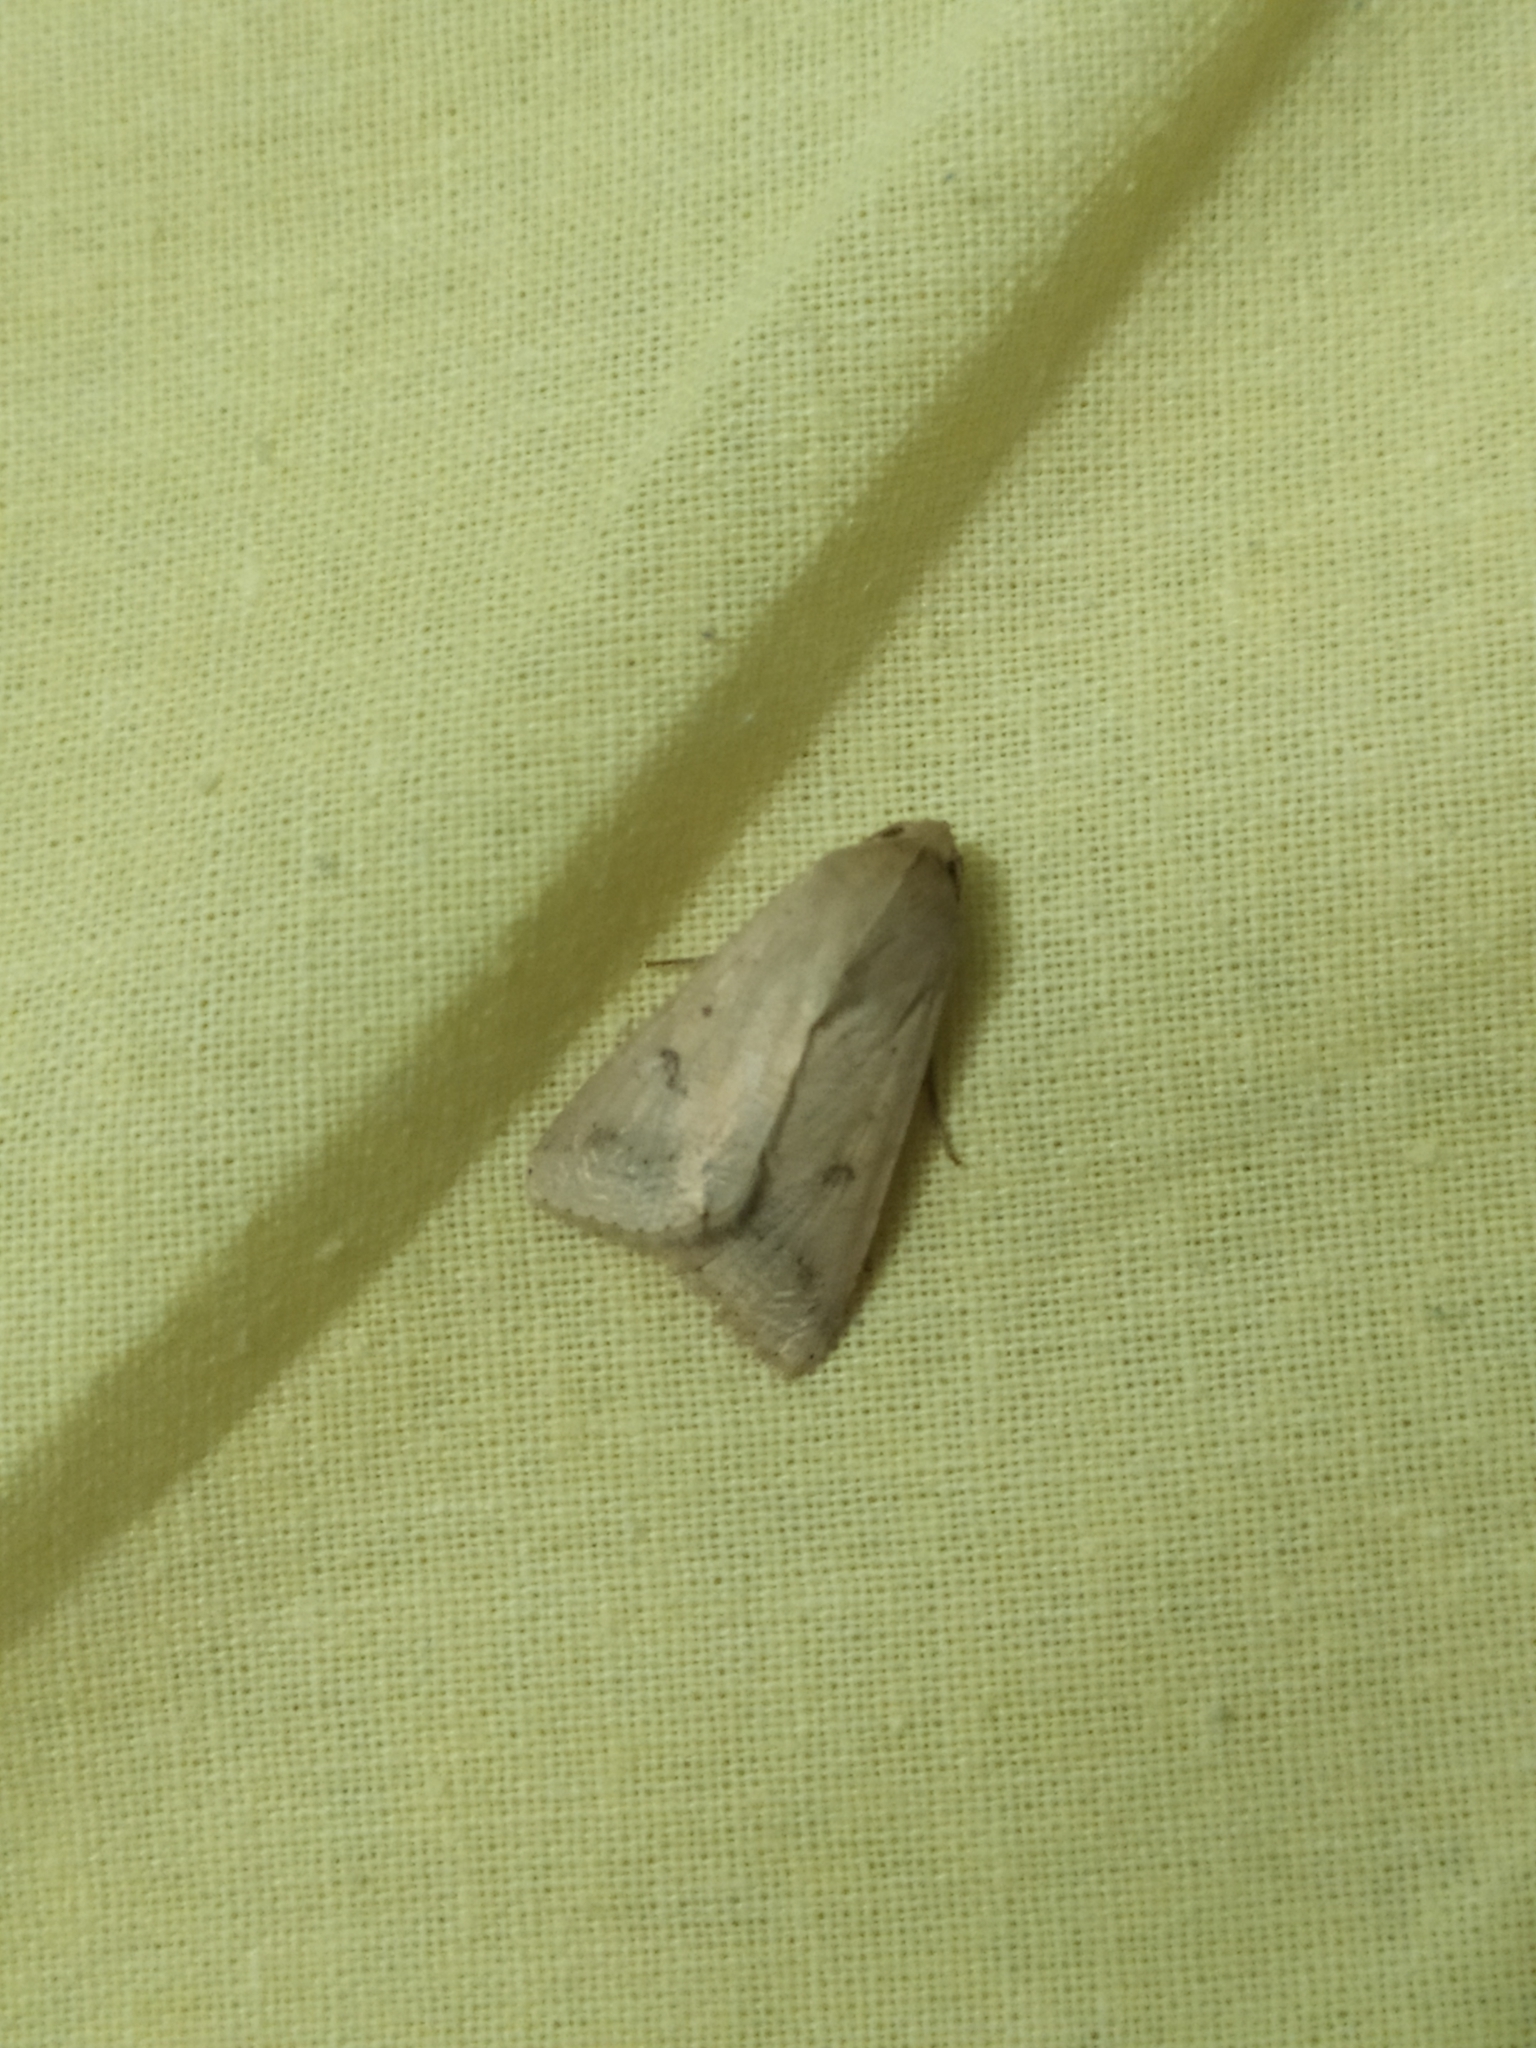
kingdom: Animalia
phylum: Arthropoda
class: Insecta
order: Lepidoptera
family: Noctuidae
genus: Helicoverpa
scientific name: Helicoverpa armigera
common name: Cotton bollworm
